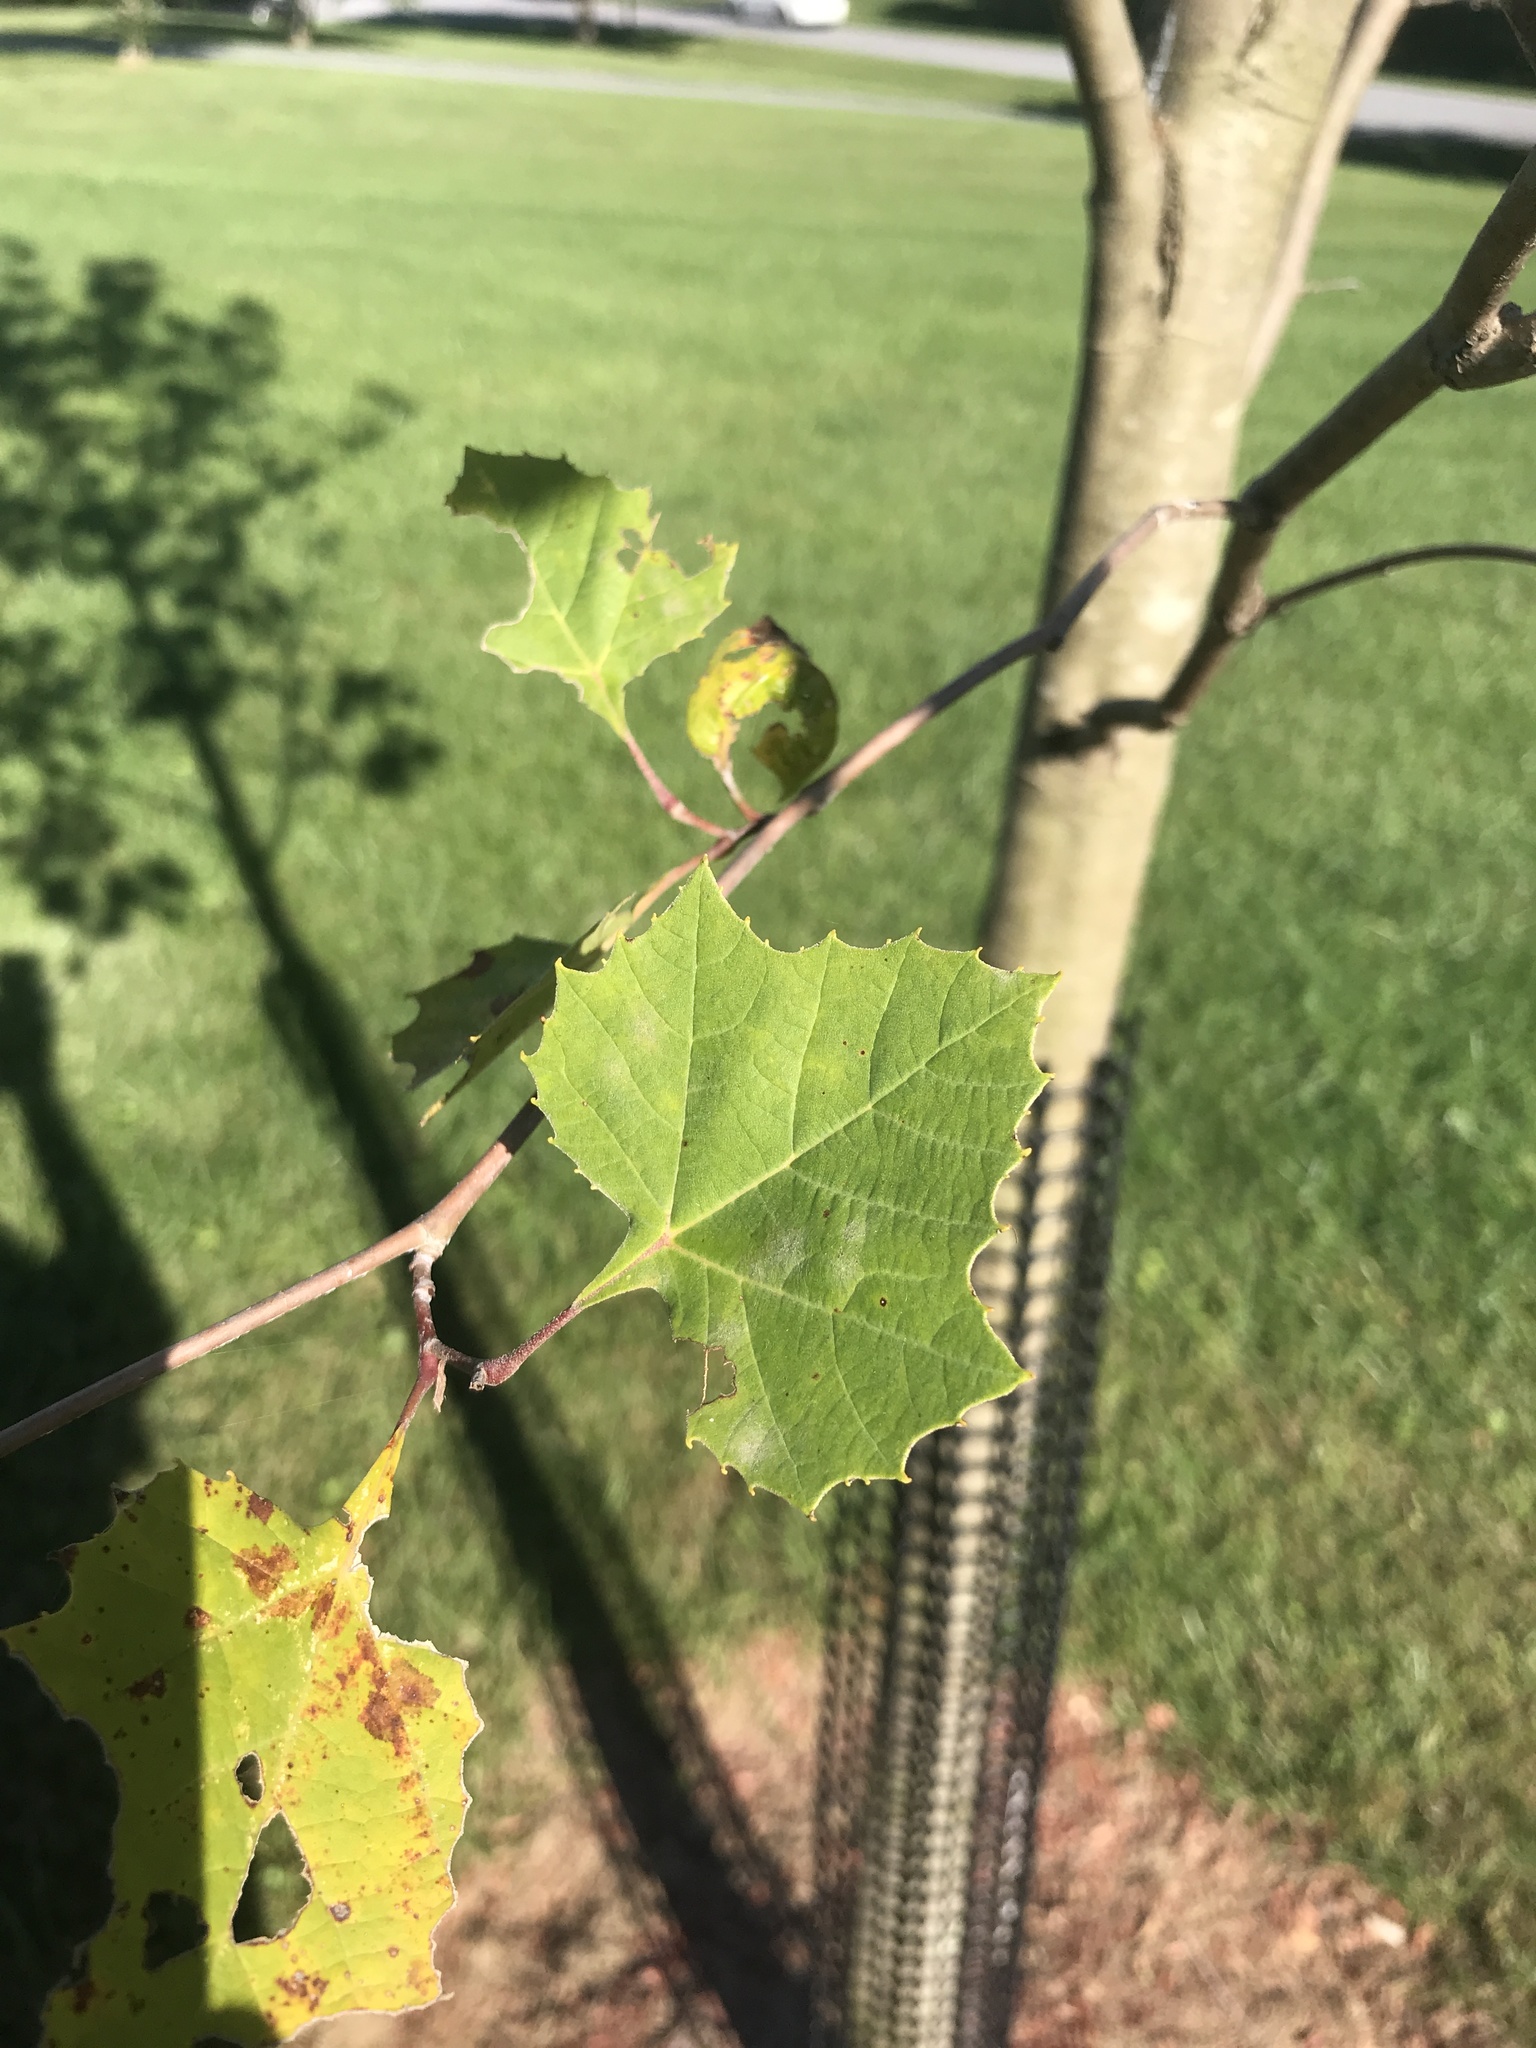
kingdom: Plantae
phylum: Tracheophyta
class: Magnoliopsida
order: Proteales
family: Platanaceae
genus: Platanus
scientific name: Platanus occidentalis
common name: American sycamore
